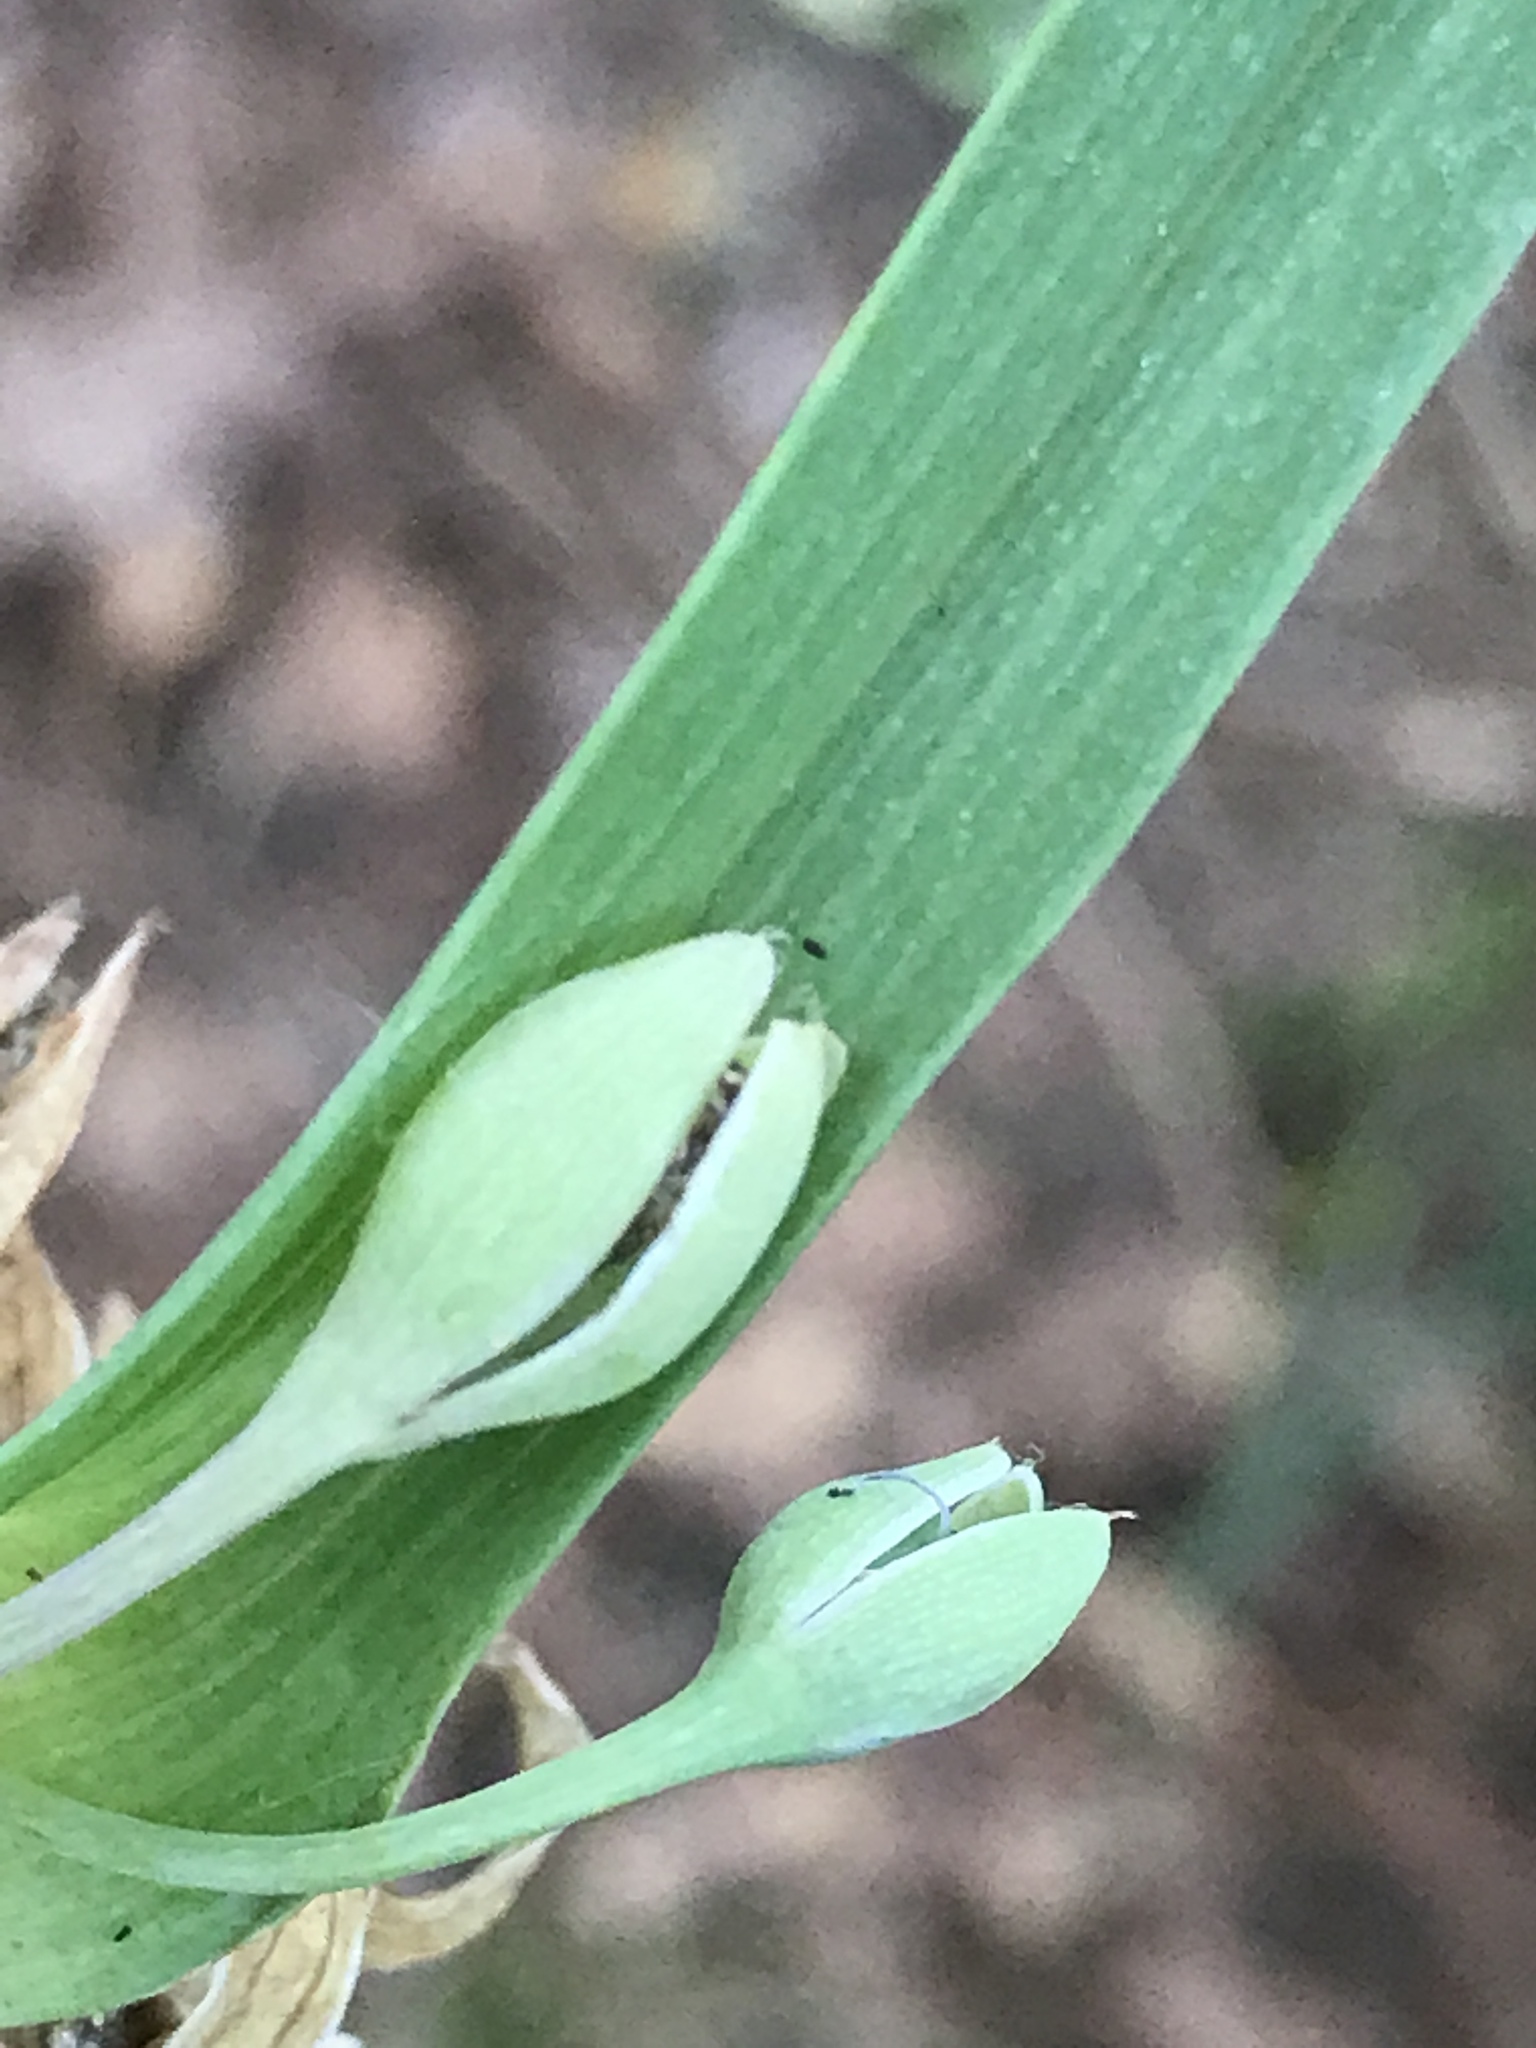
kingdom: Plantae
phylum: Tracheophyta
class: Liliopsida
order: Commelinales
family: Commelinaceae
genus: Tradescantia
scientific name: Tradescantia ohiensis
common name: Ohio spiderwort
